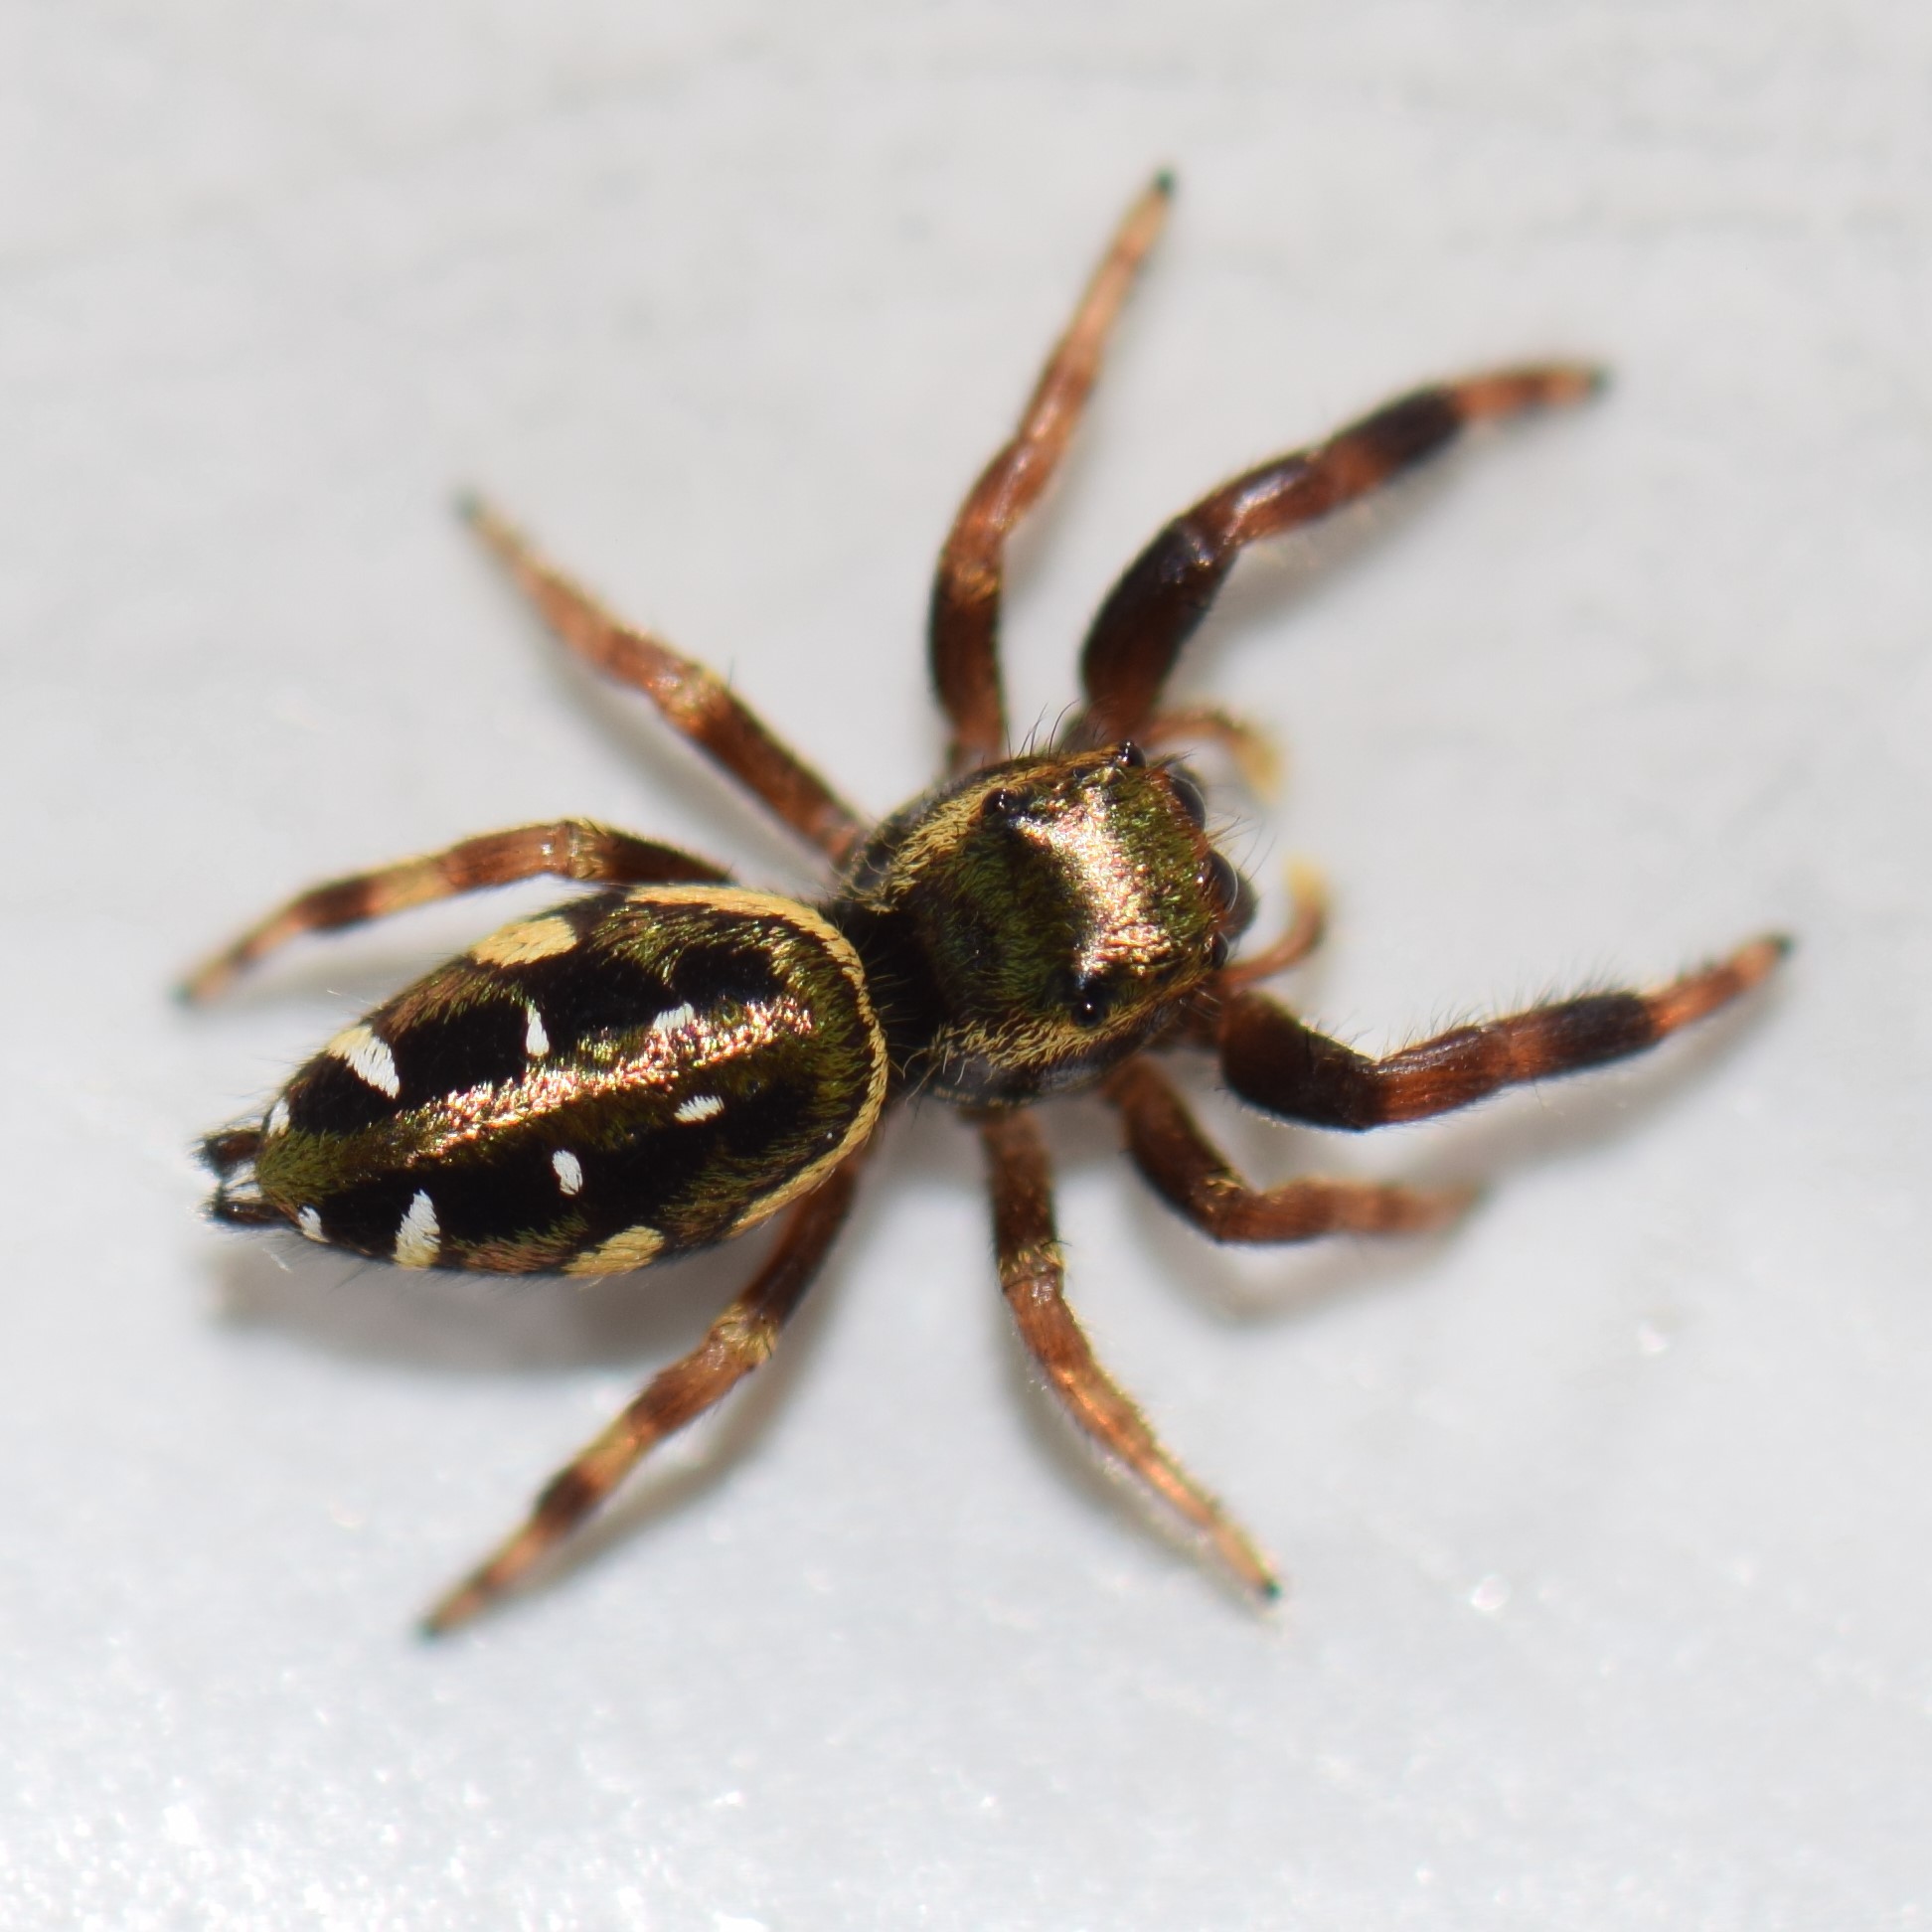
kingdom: Animalia
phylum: Arthropoda
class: Arachnida
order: Araneae
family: Salticidae
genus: Paraphidippus
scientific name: Paraphidippus aurantius
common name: Jumping spiders
